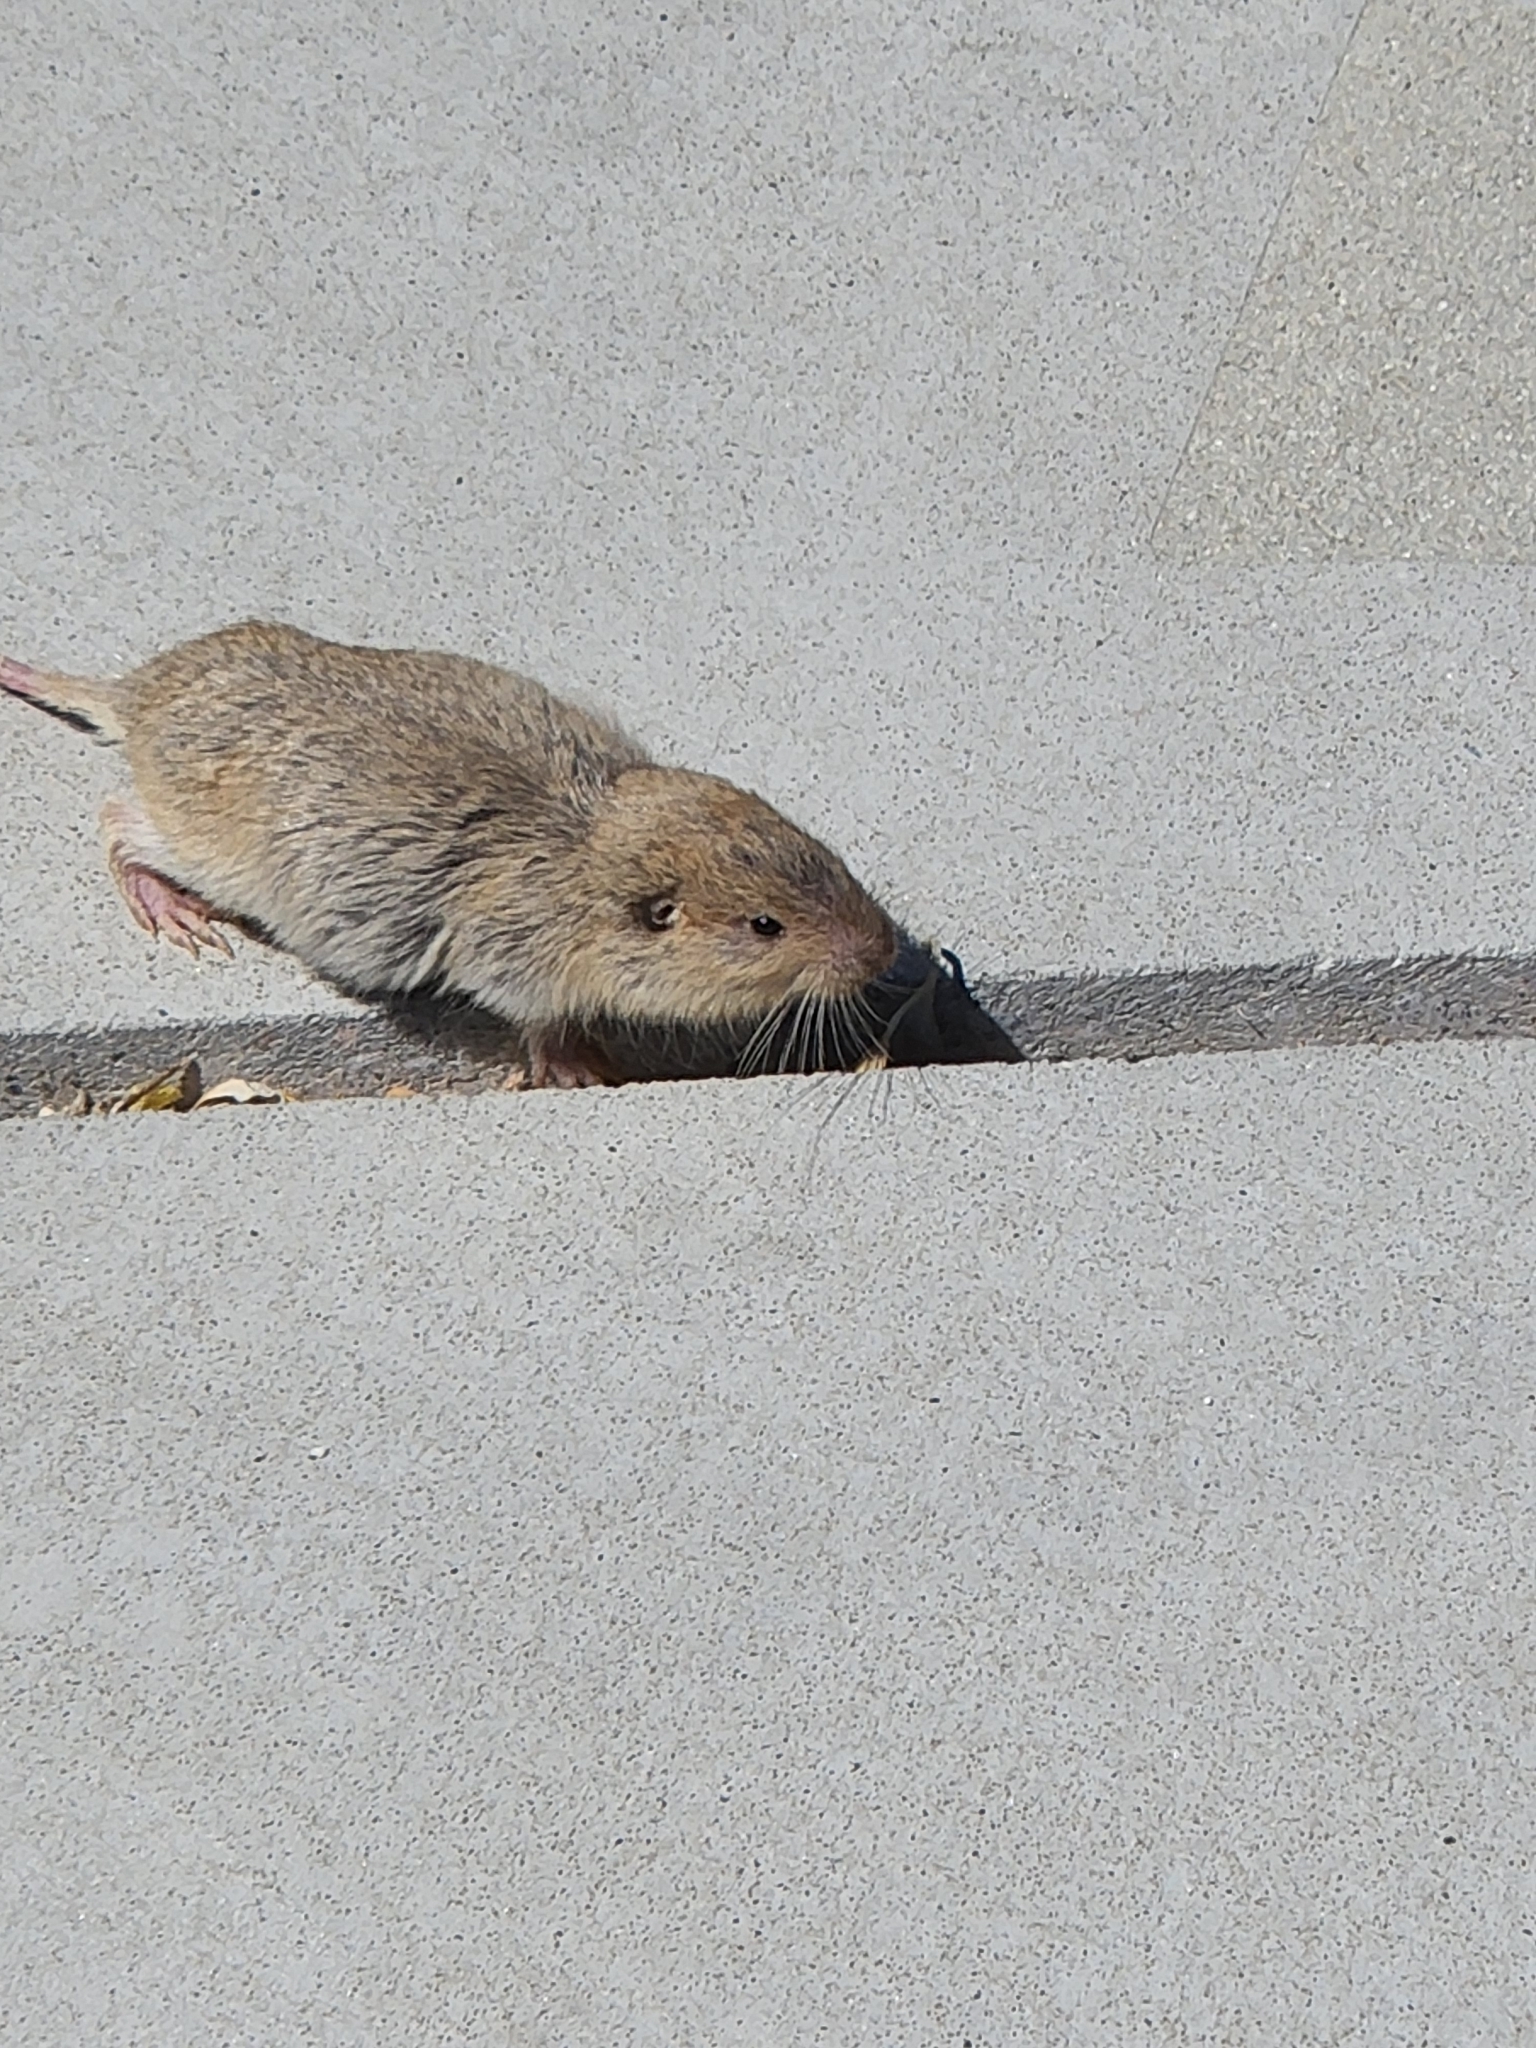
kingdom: Animalia
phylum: Chordata
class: Mammalia
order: Rodentia
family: Geomyidae
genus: Thomomys
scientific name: Thomomys bottae
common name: Botta's pocket gopher
